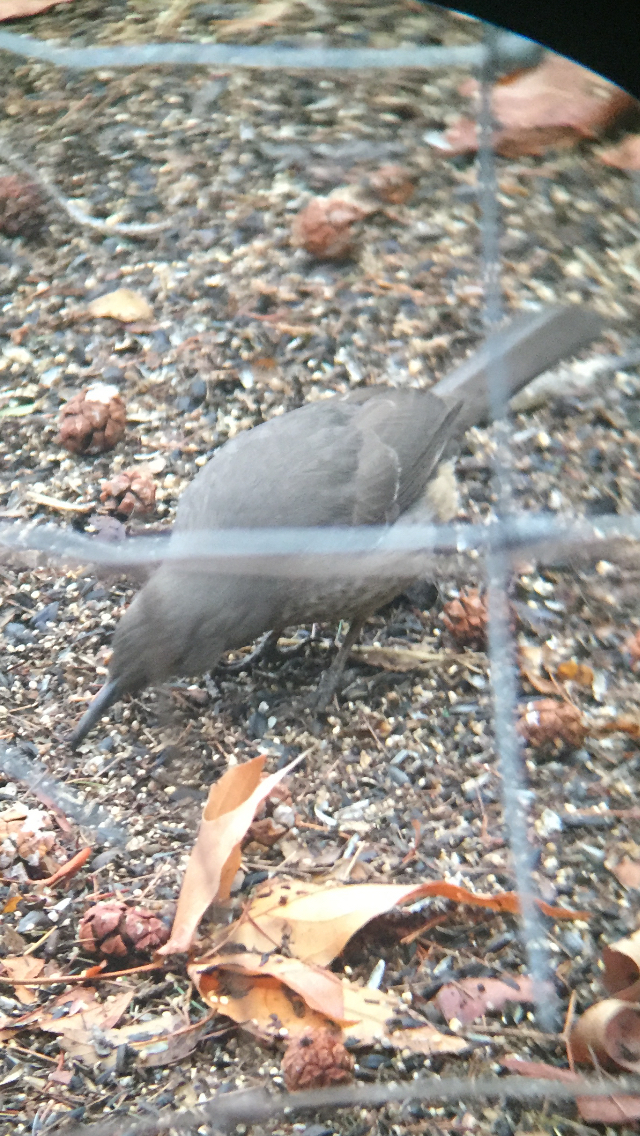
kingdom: Animalia
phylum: Chordata
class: Aves
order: Passeriformes
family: Mimidae
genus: Toxostoma
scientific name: Toxostoma curvirostre
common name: Curve-billed thrasher
